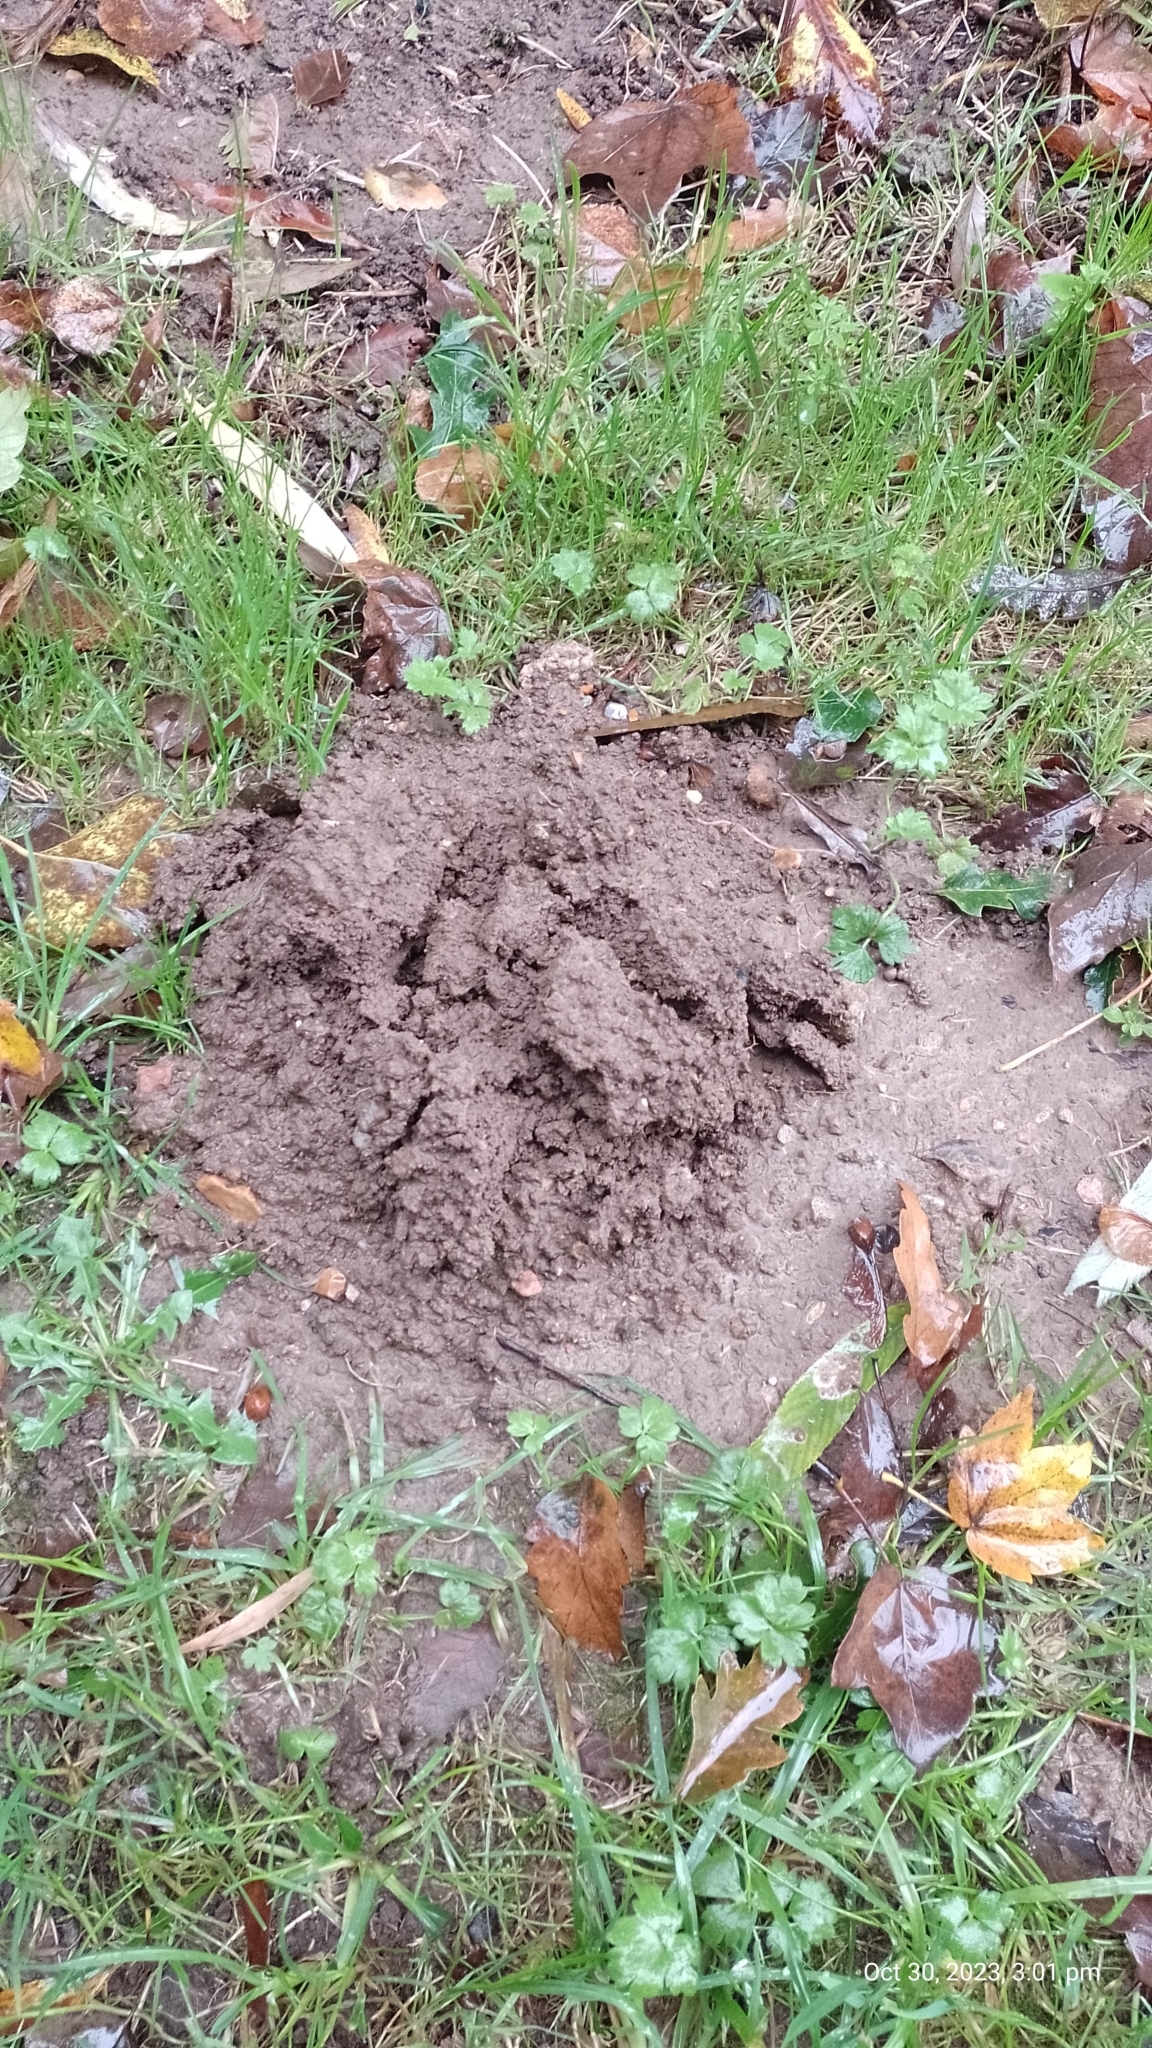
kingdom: Animalia
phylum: Chordata
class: Mammalia
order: Soricomorpha
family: Talpidae
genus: Talpa
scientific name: Talpa europaea
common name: European mole
